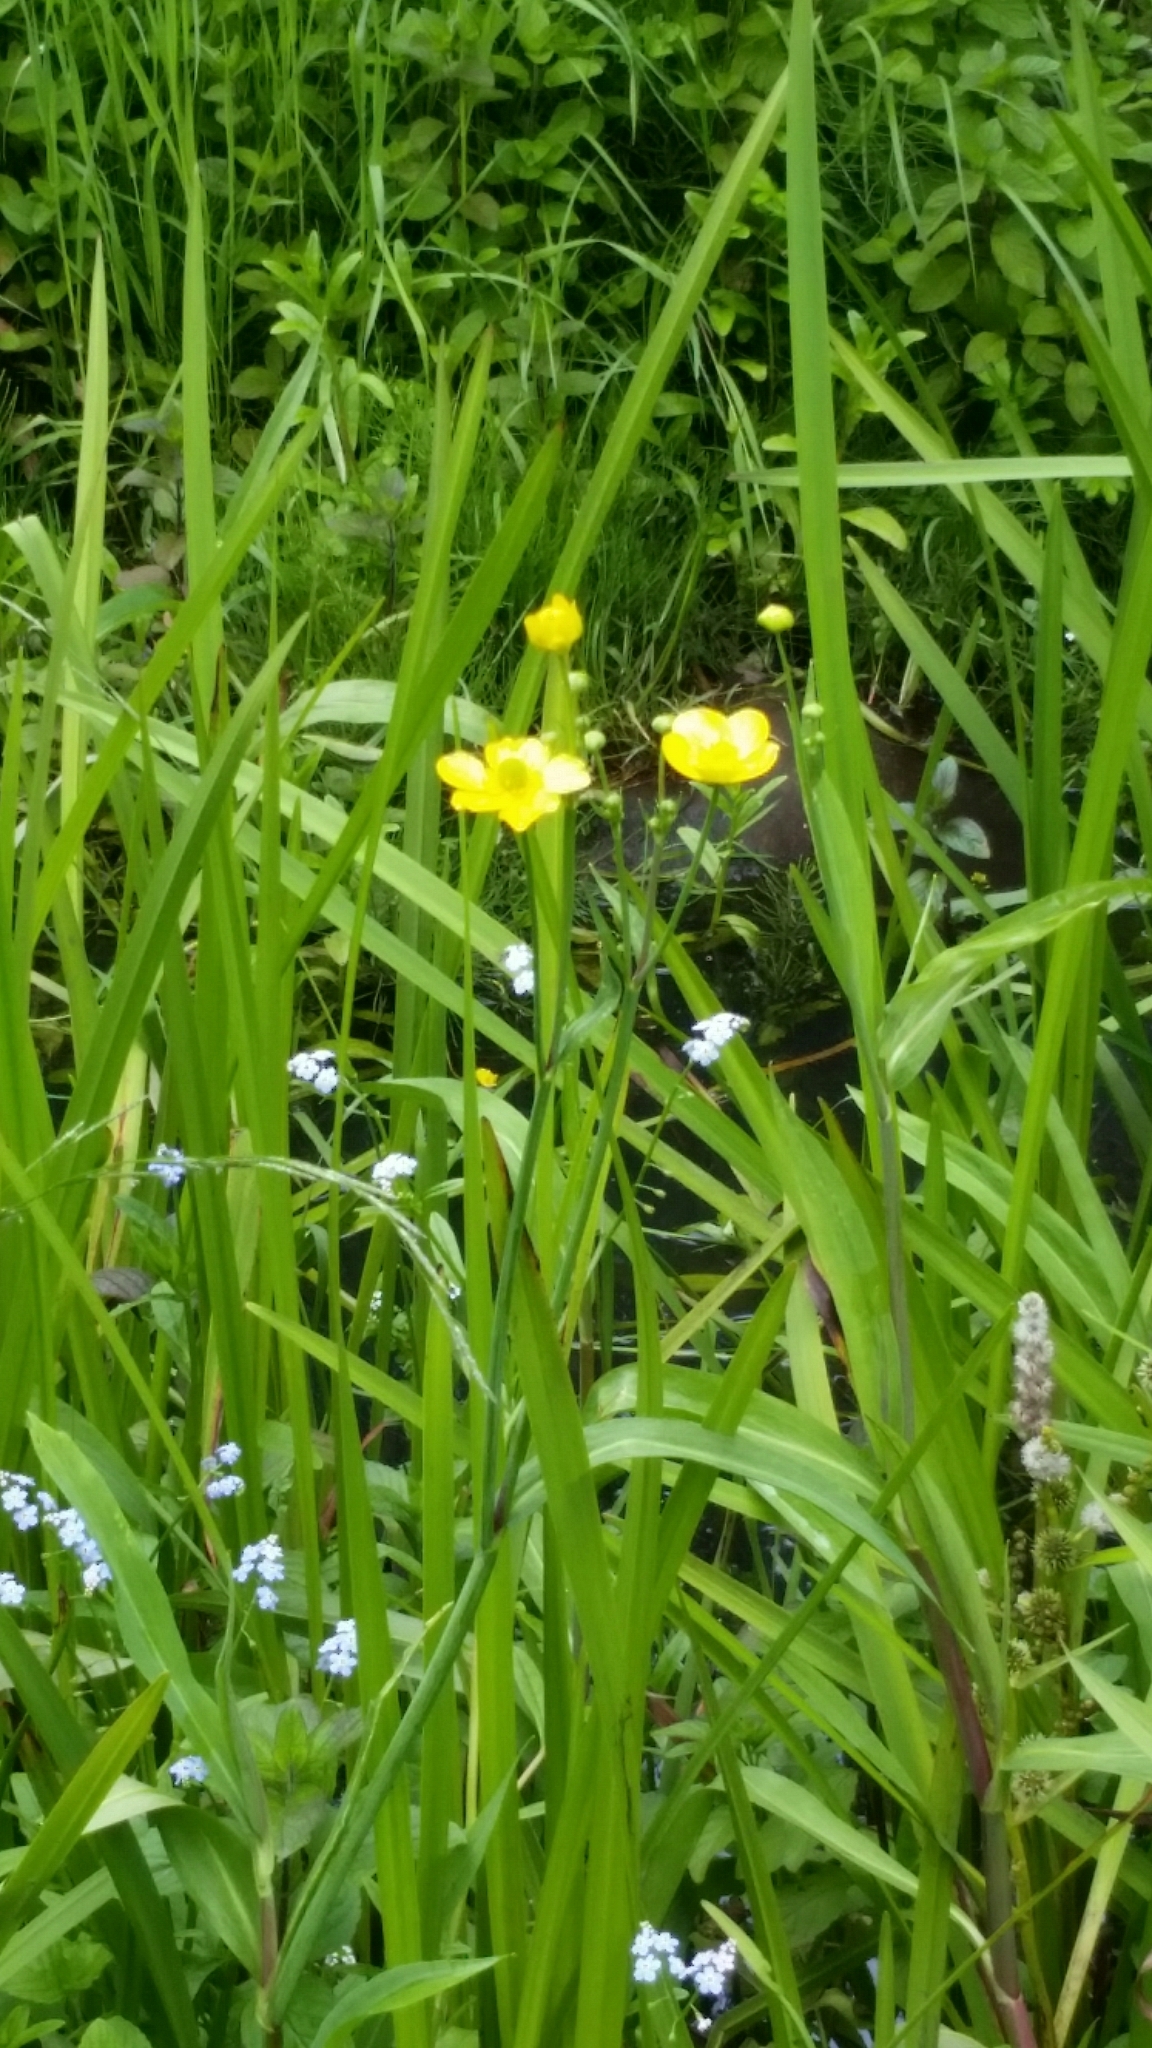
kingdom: Plantae
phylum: Tracheophyta
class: Magnoliopsida
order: Ranunculales
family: Ranunculaceae
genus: Ranunculus
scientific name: Ranunculus flammula
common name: Lesser spearwort
